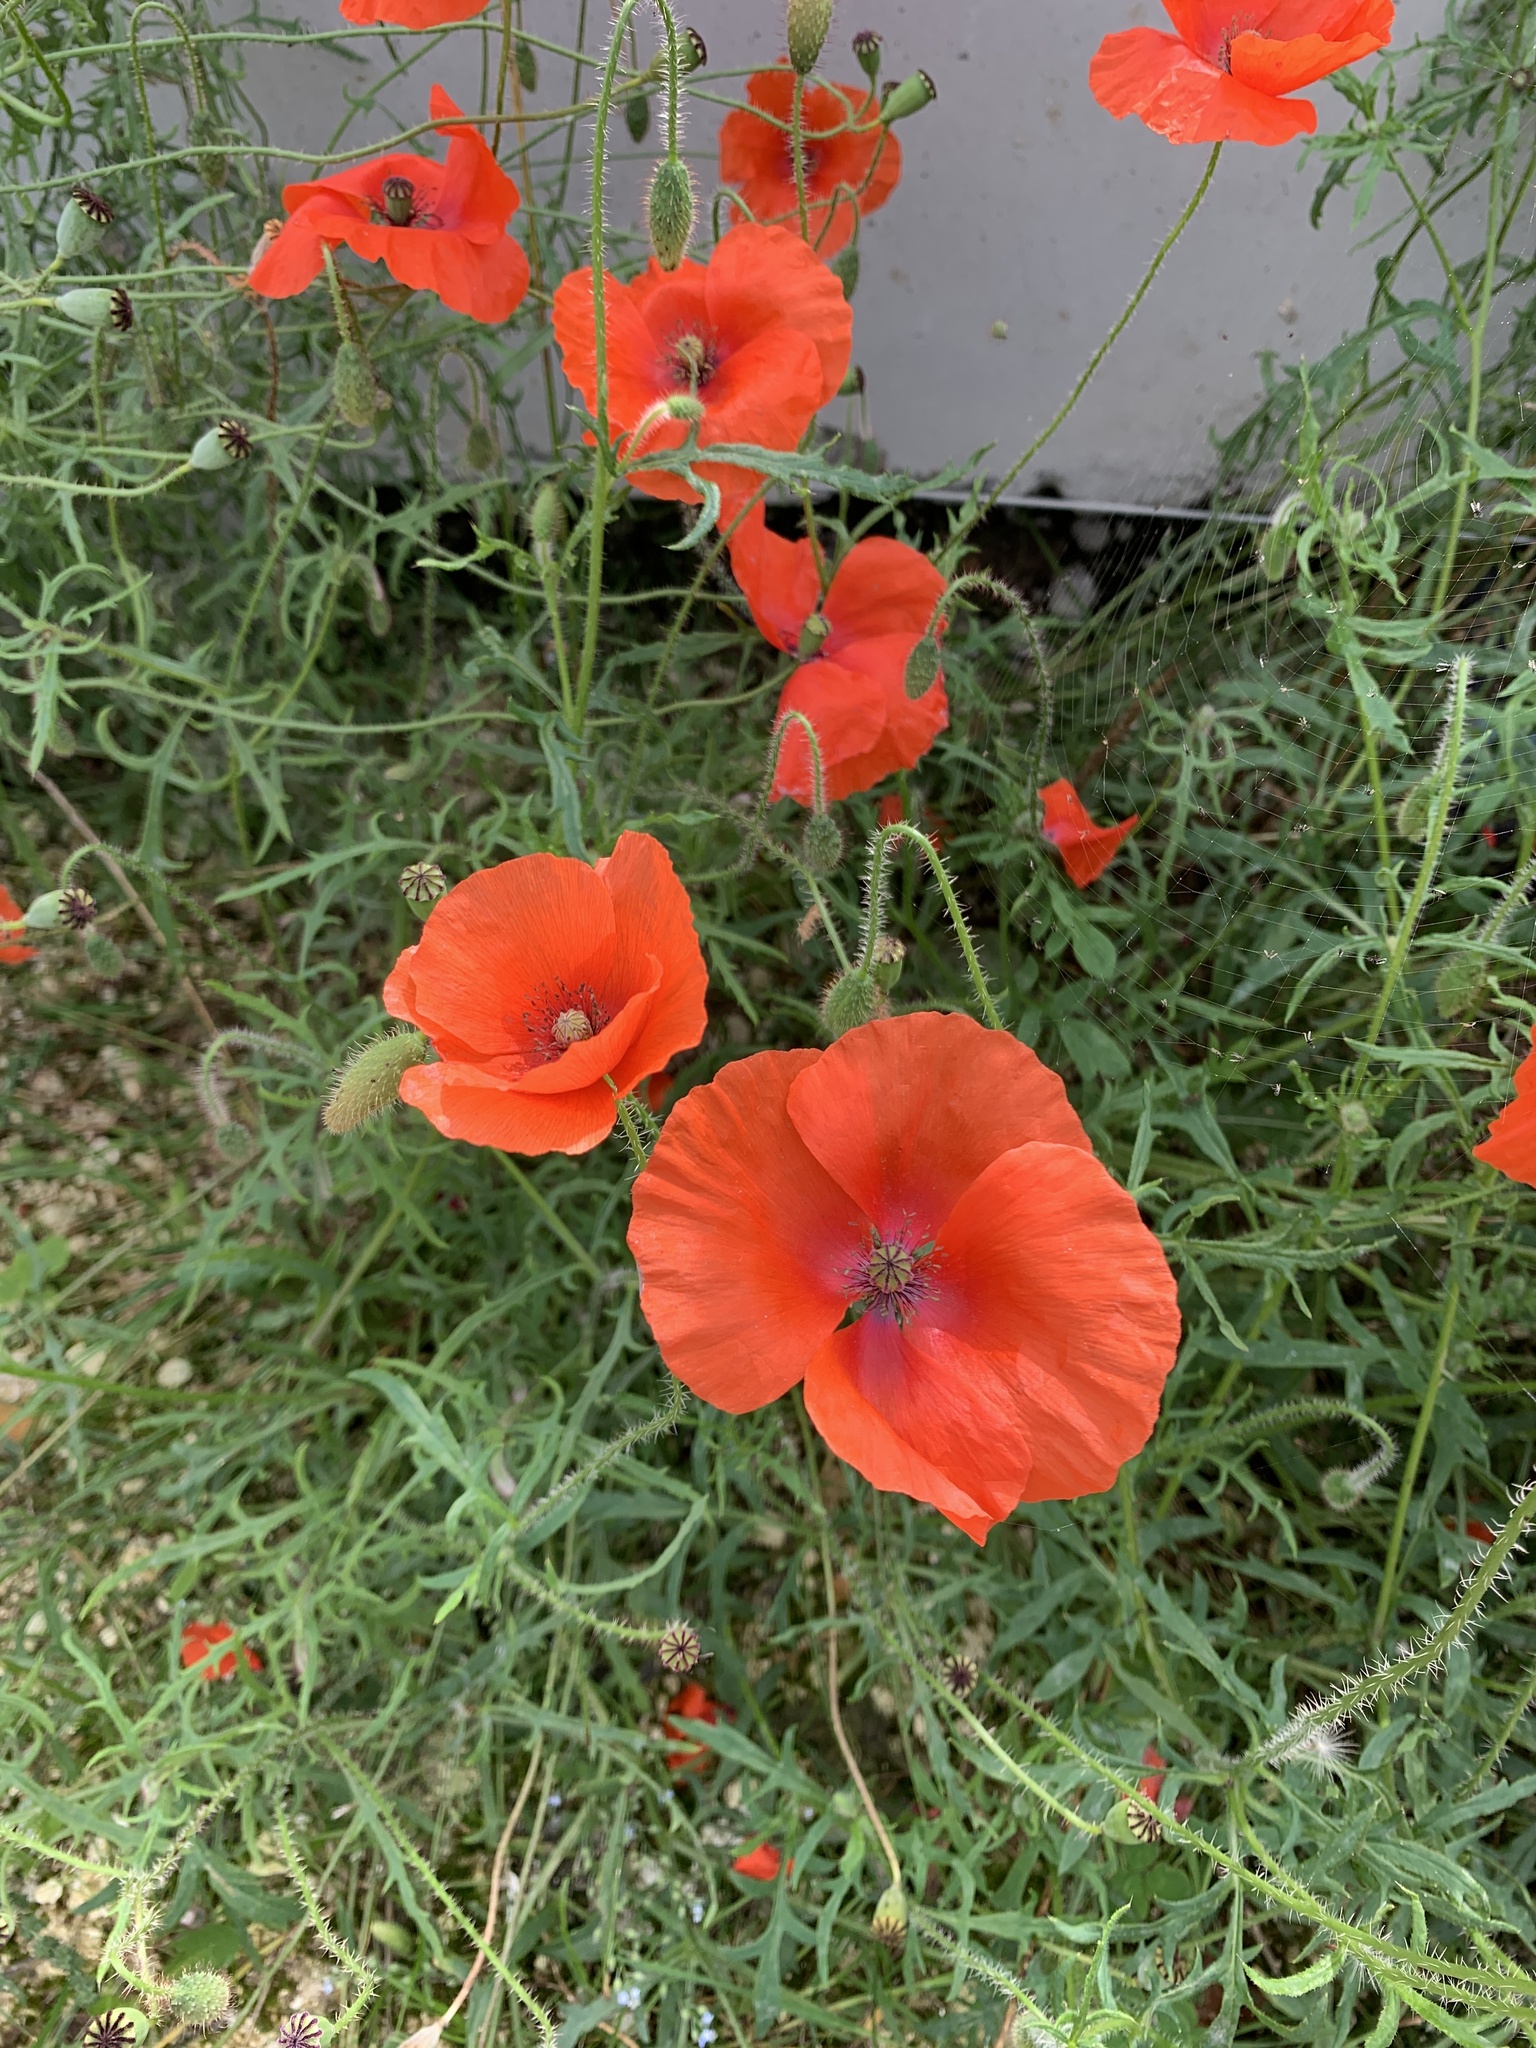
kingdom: Plantae
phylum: Tracheophyta
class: Magnoliopsida
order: Ranunculales
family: Papaveraceae
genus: Papaver
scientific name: Papaver rhoeas
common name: Corn poppy
